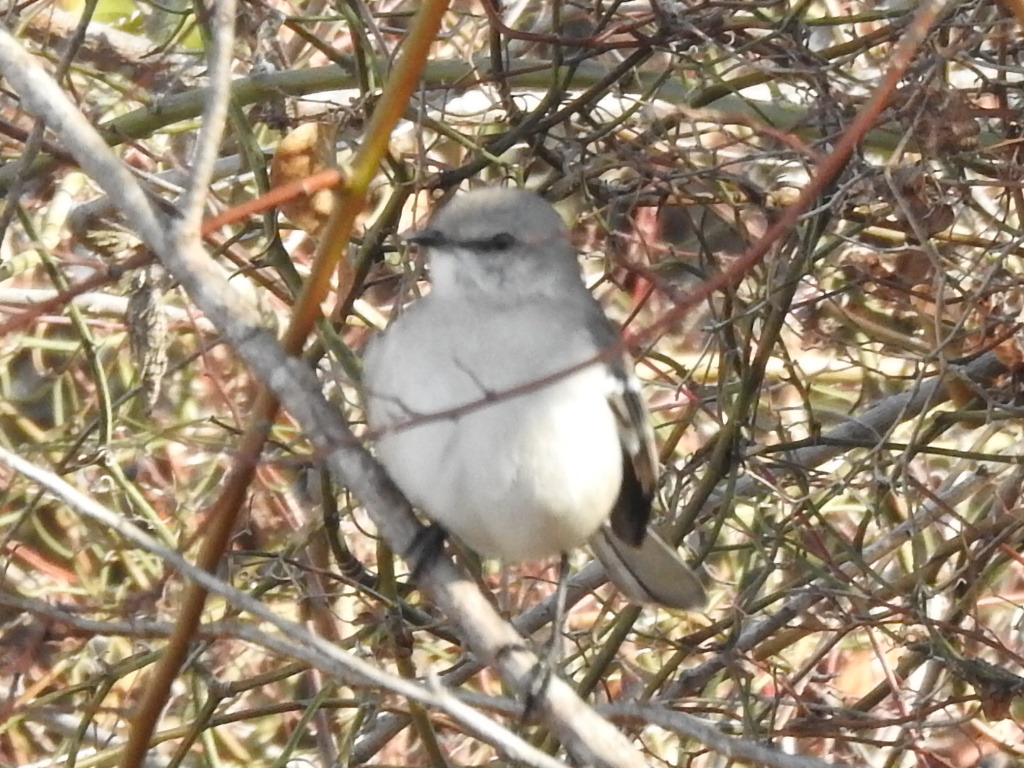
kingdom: Animalia
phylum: Chordata
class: Aves
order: Passeriformes
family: Mimidae
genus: Mimus
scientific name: Mimus polyglottos
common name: Northern mockingbird
